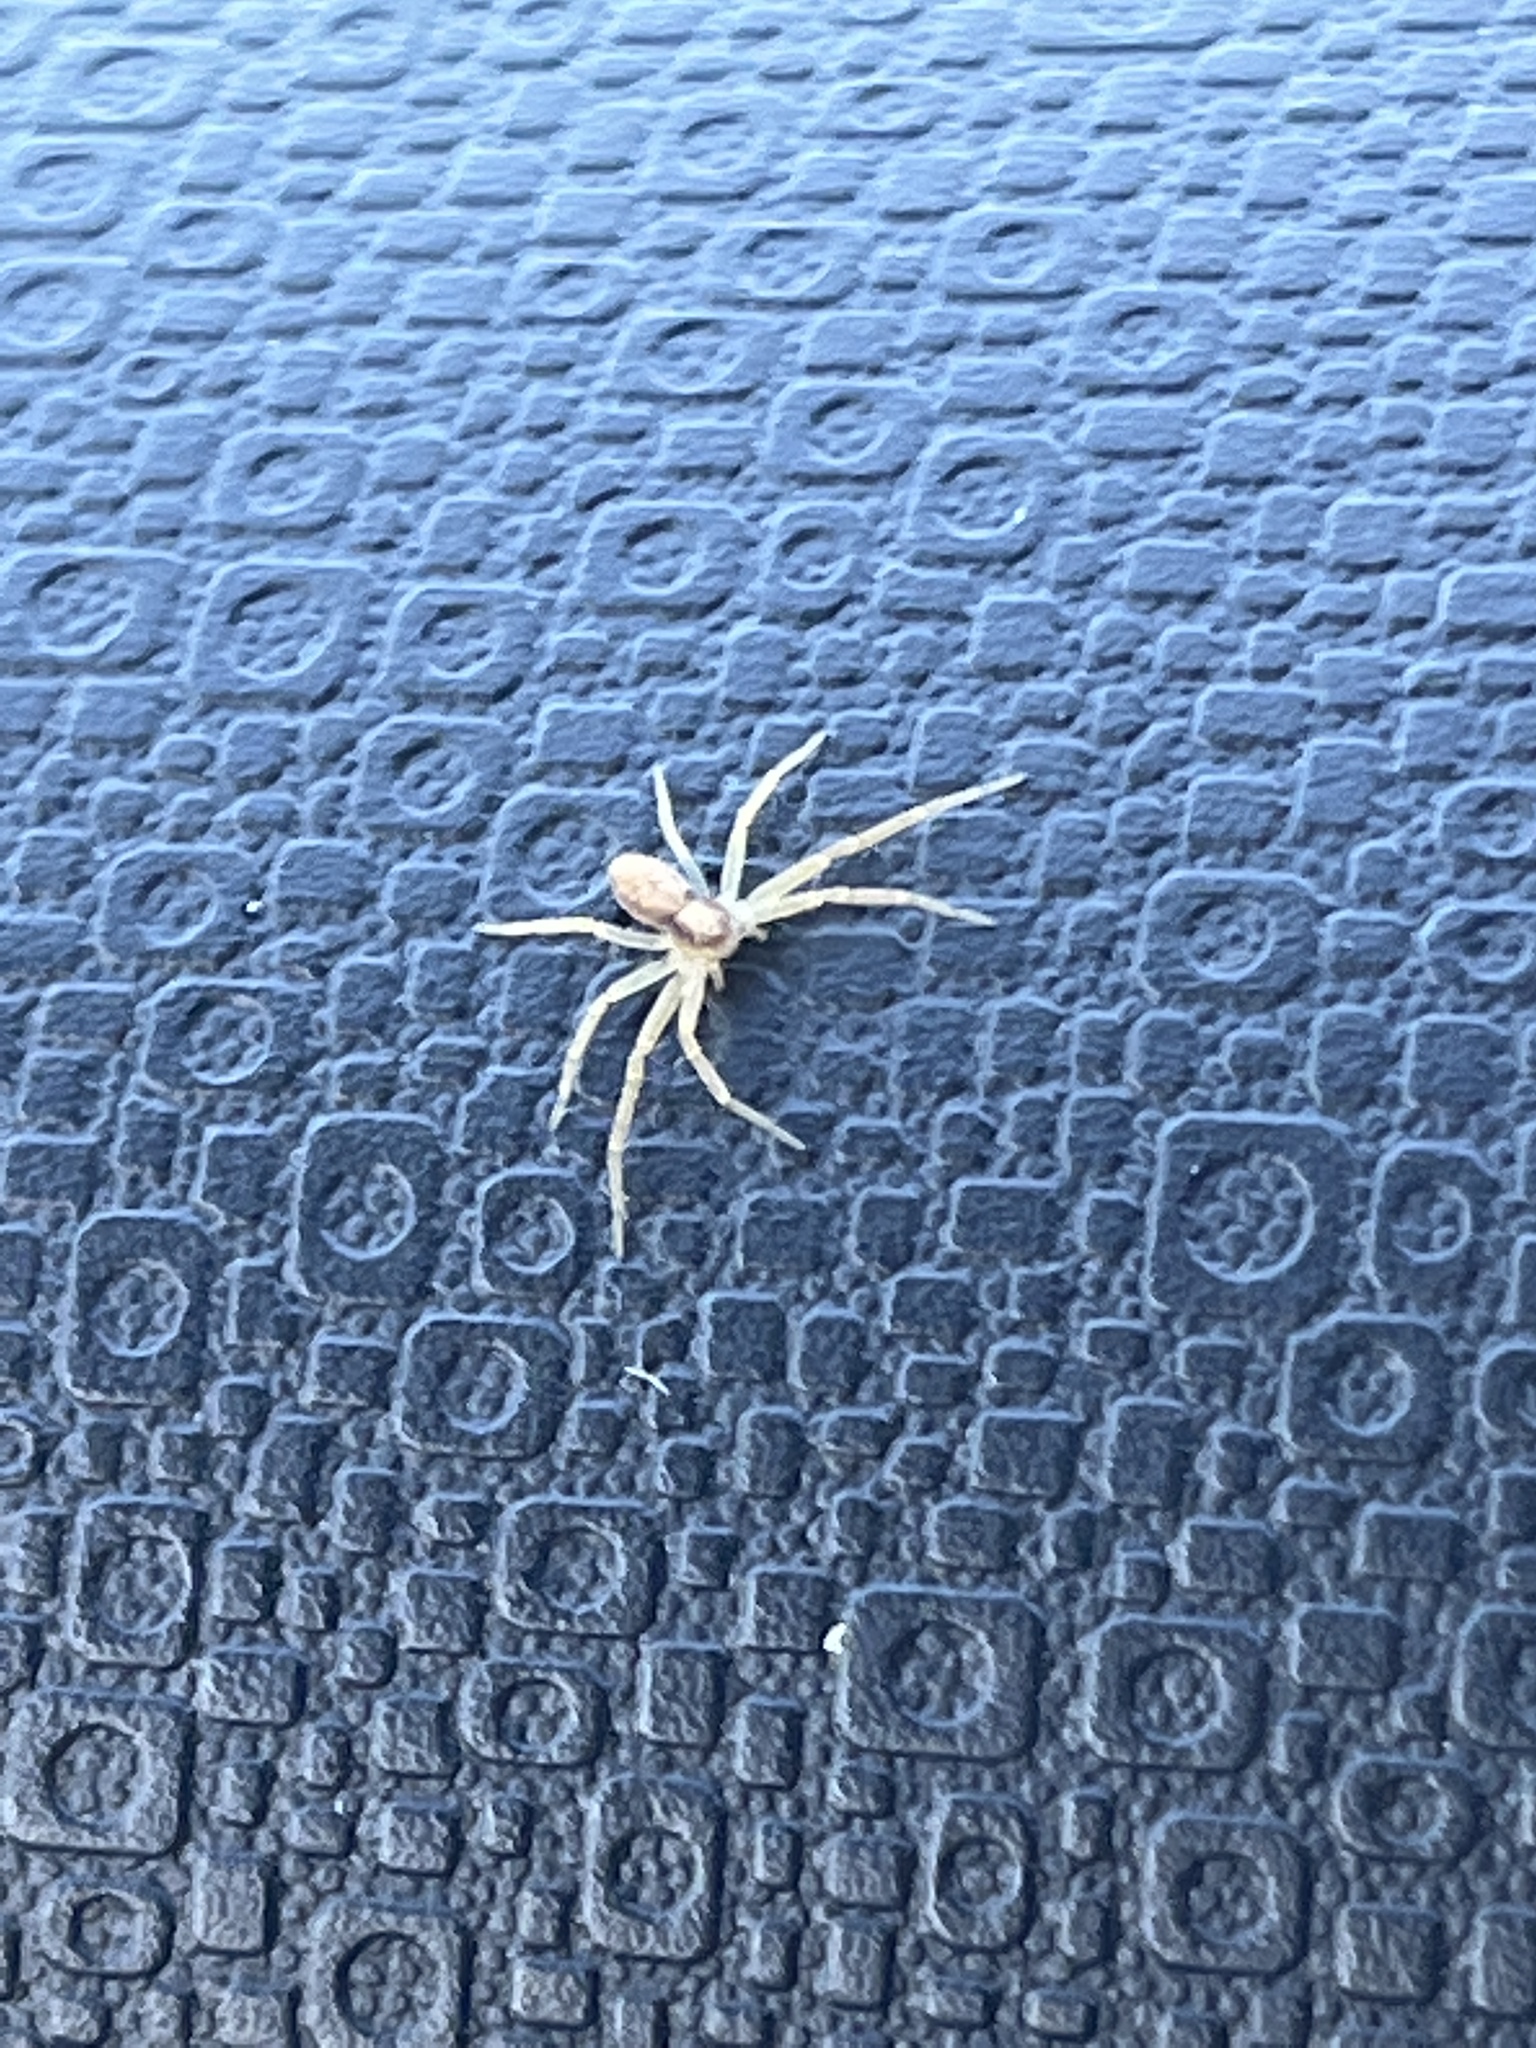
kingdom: Animalia
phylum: Arthropoda
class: Arachnida
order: Araneae
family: Philodromidae
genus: Philodromus
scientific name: Philodromus
